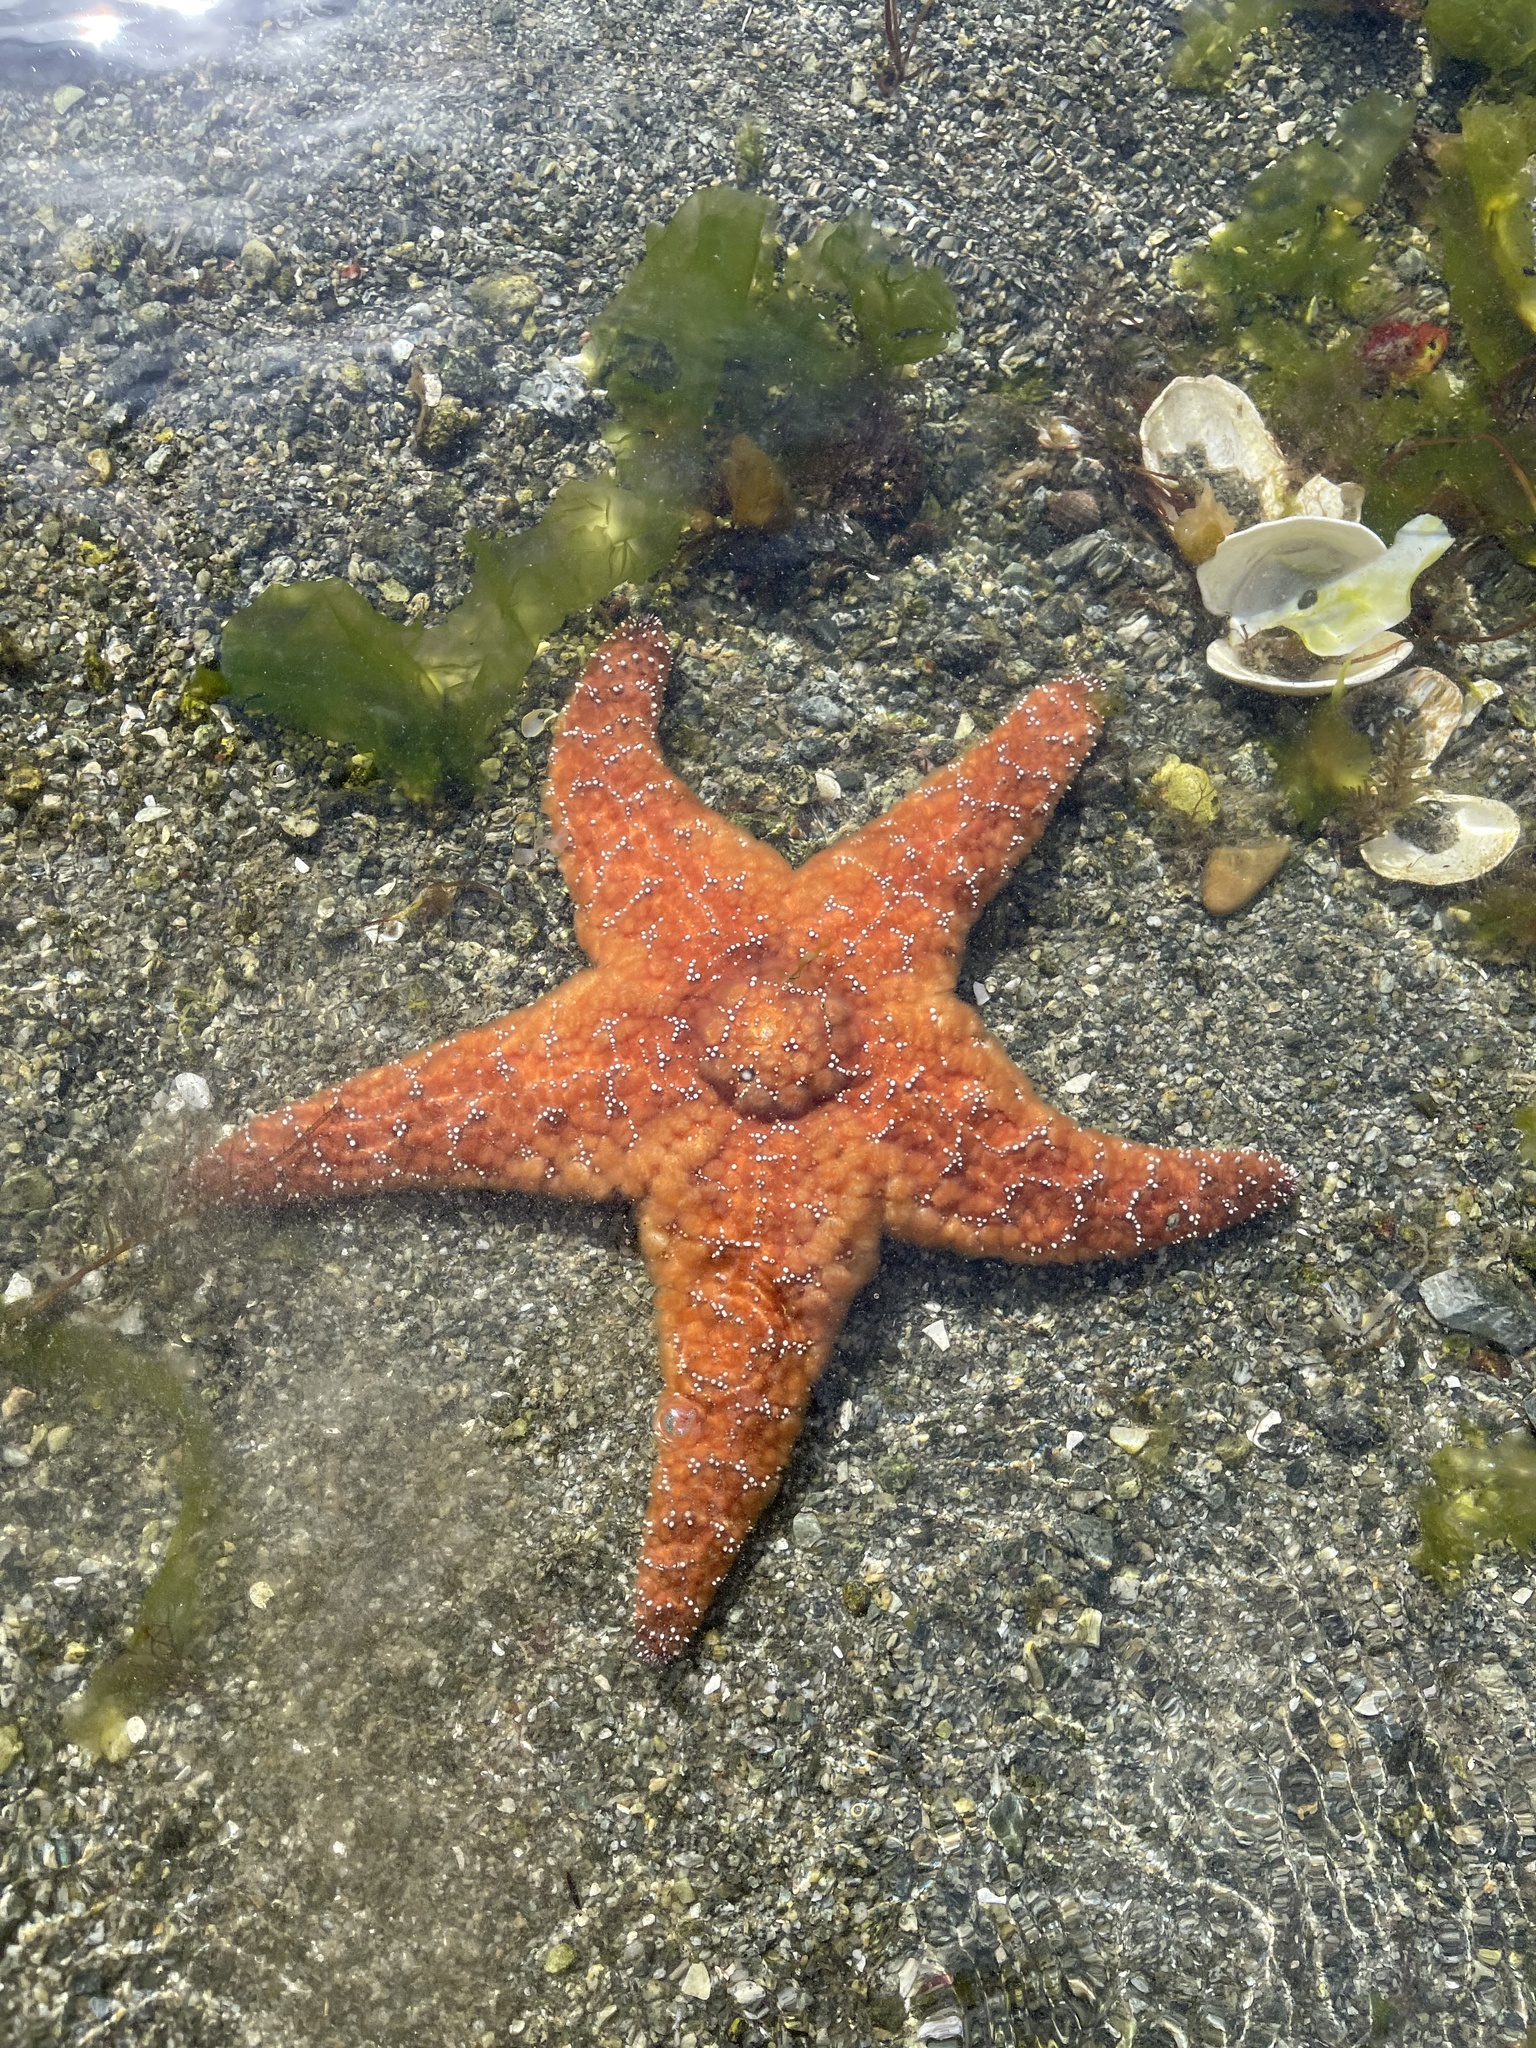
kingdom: Animalia
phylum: Echinodermata
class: Asteroidea
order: Forcipulatida
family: Asteriidae
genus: Pisaster
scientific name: Pisaster ochraceus
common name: Ochre stars
